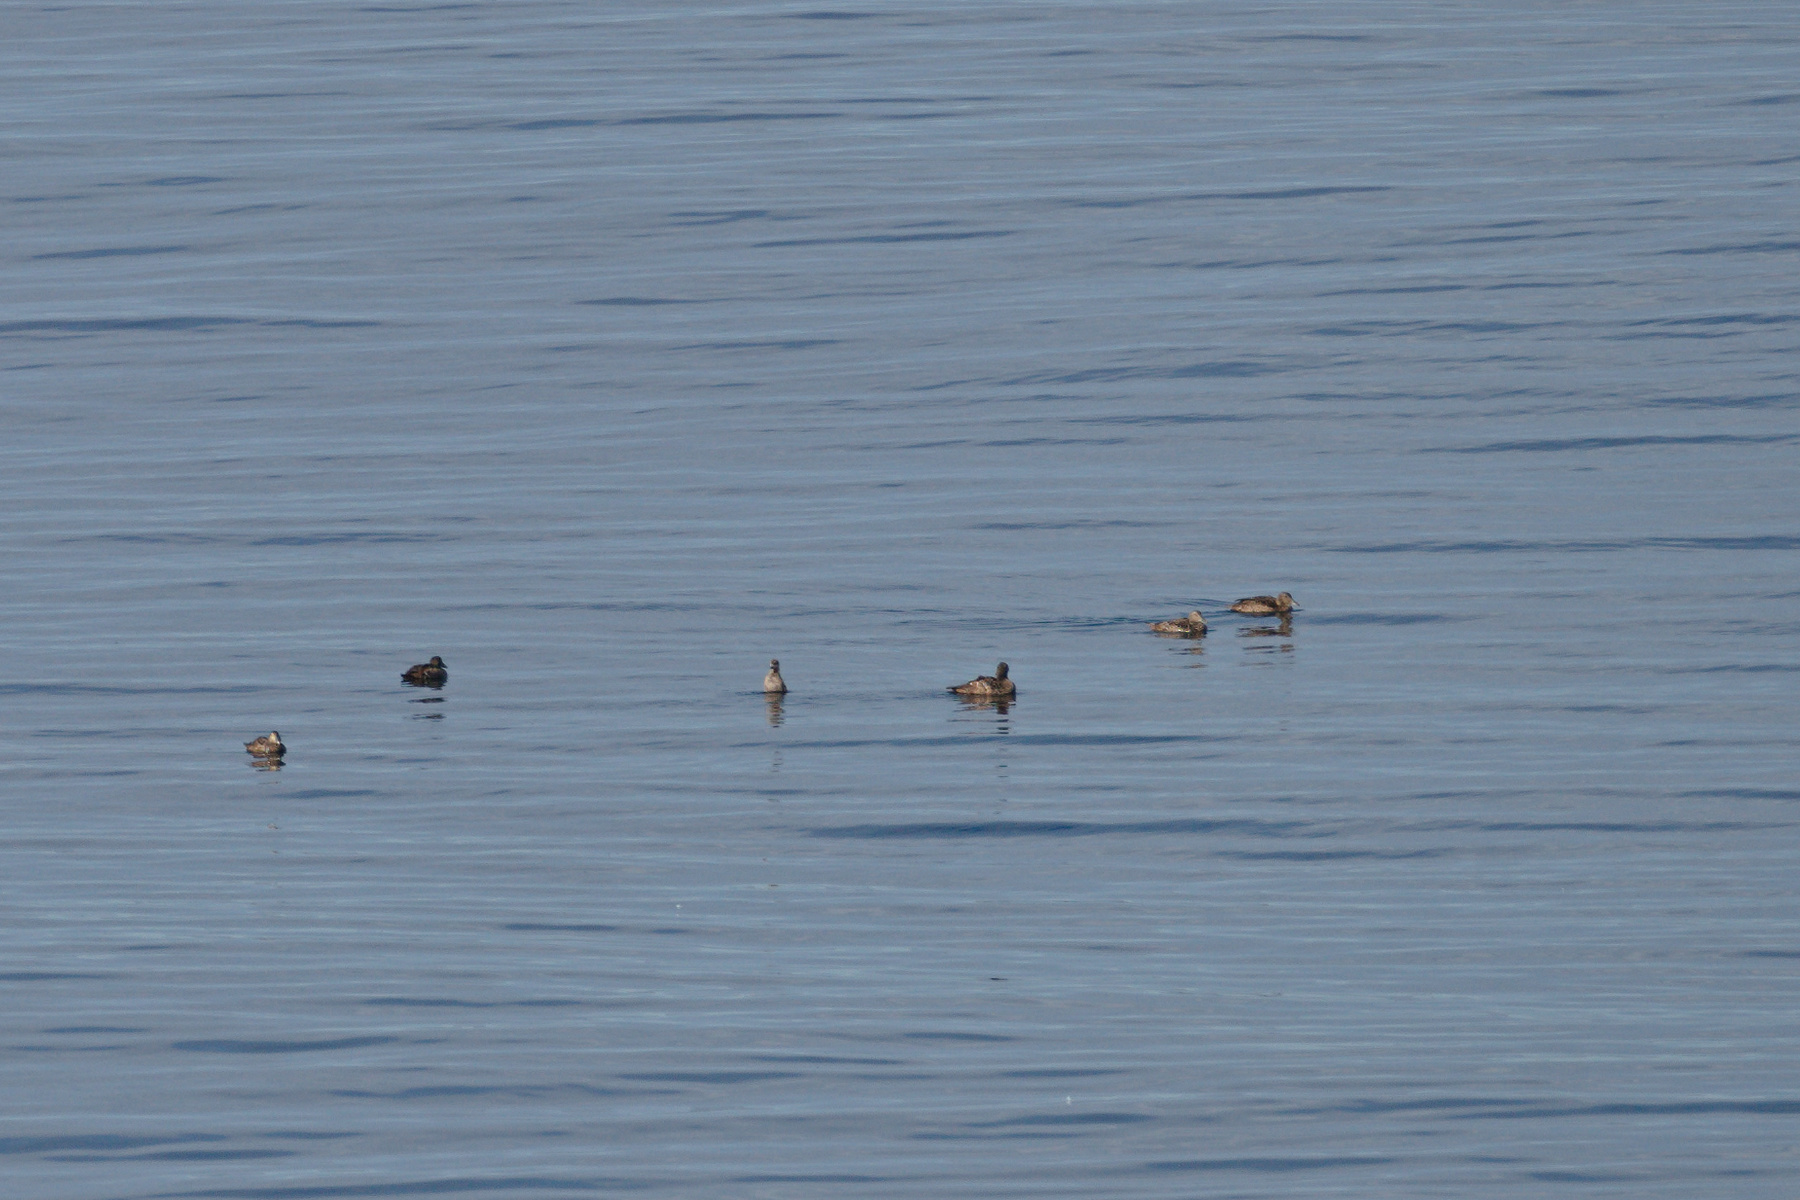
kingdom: Animalia
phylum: Chordata
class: Aves
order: Anseriformes
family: Anatidae
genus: Somateria
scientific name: Somateria mollissima
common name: Common eider
